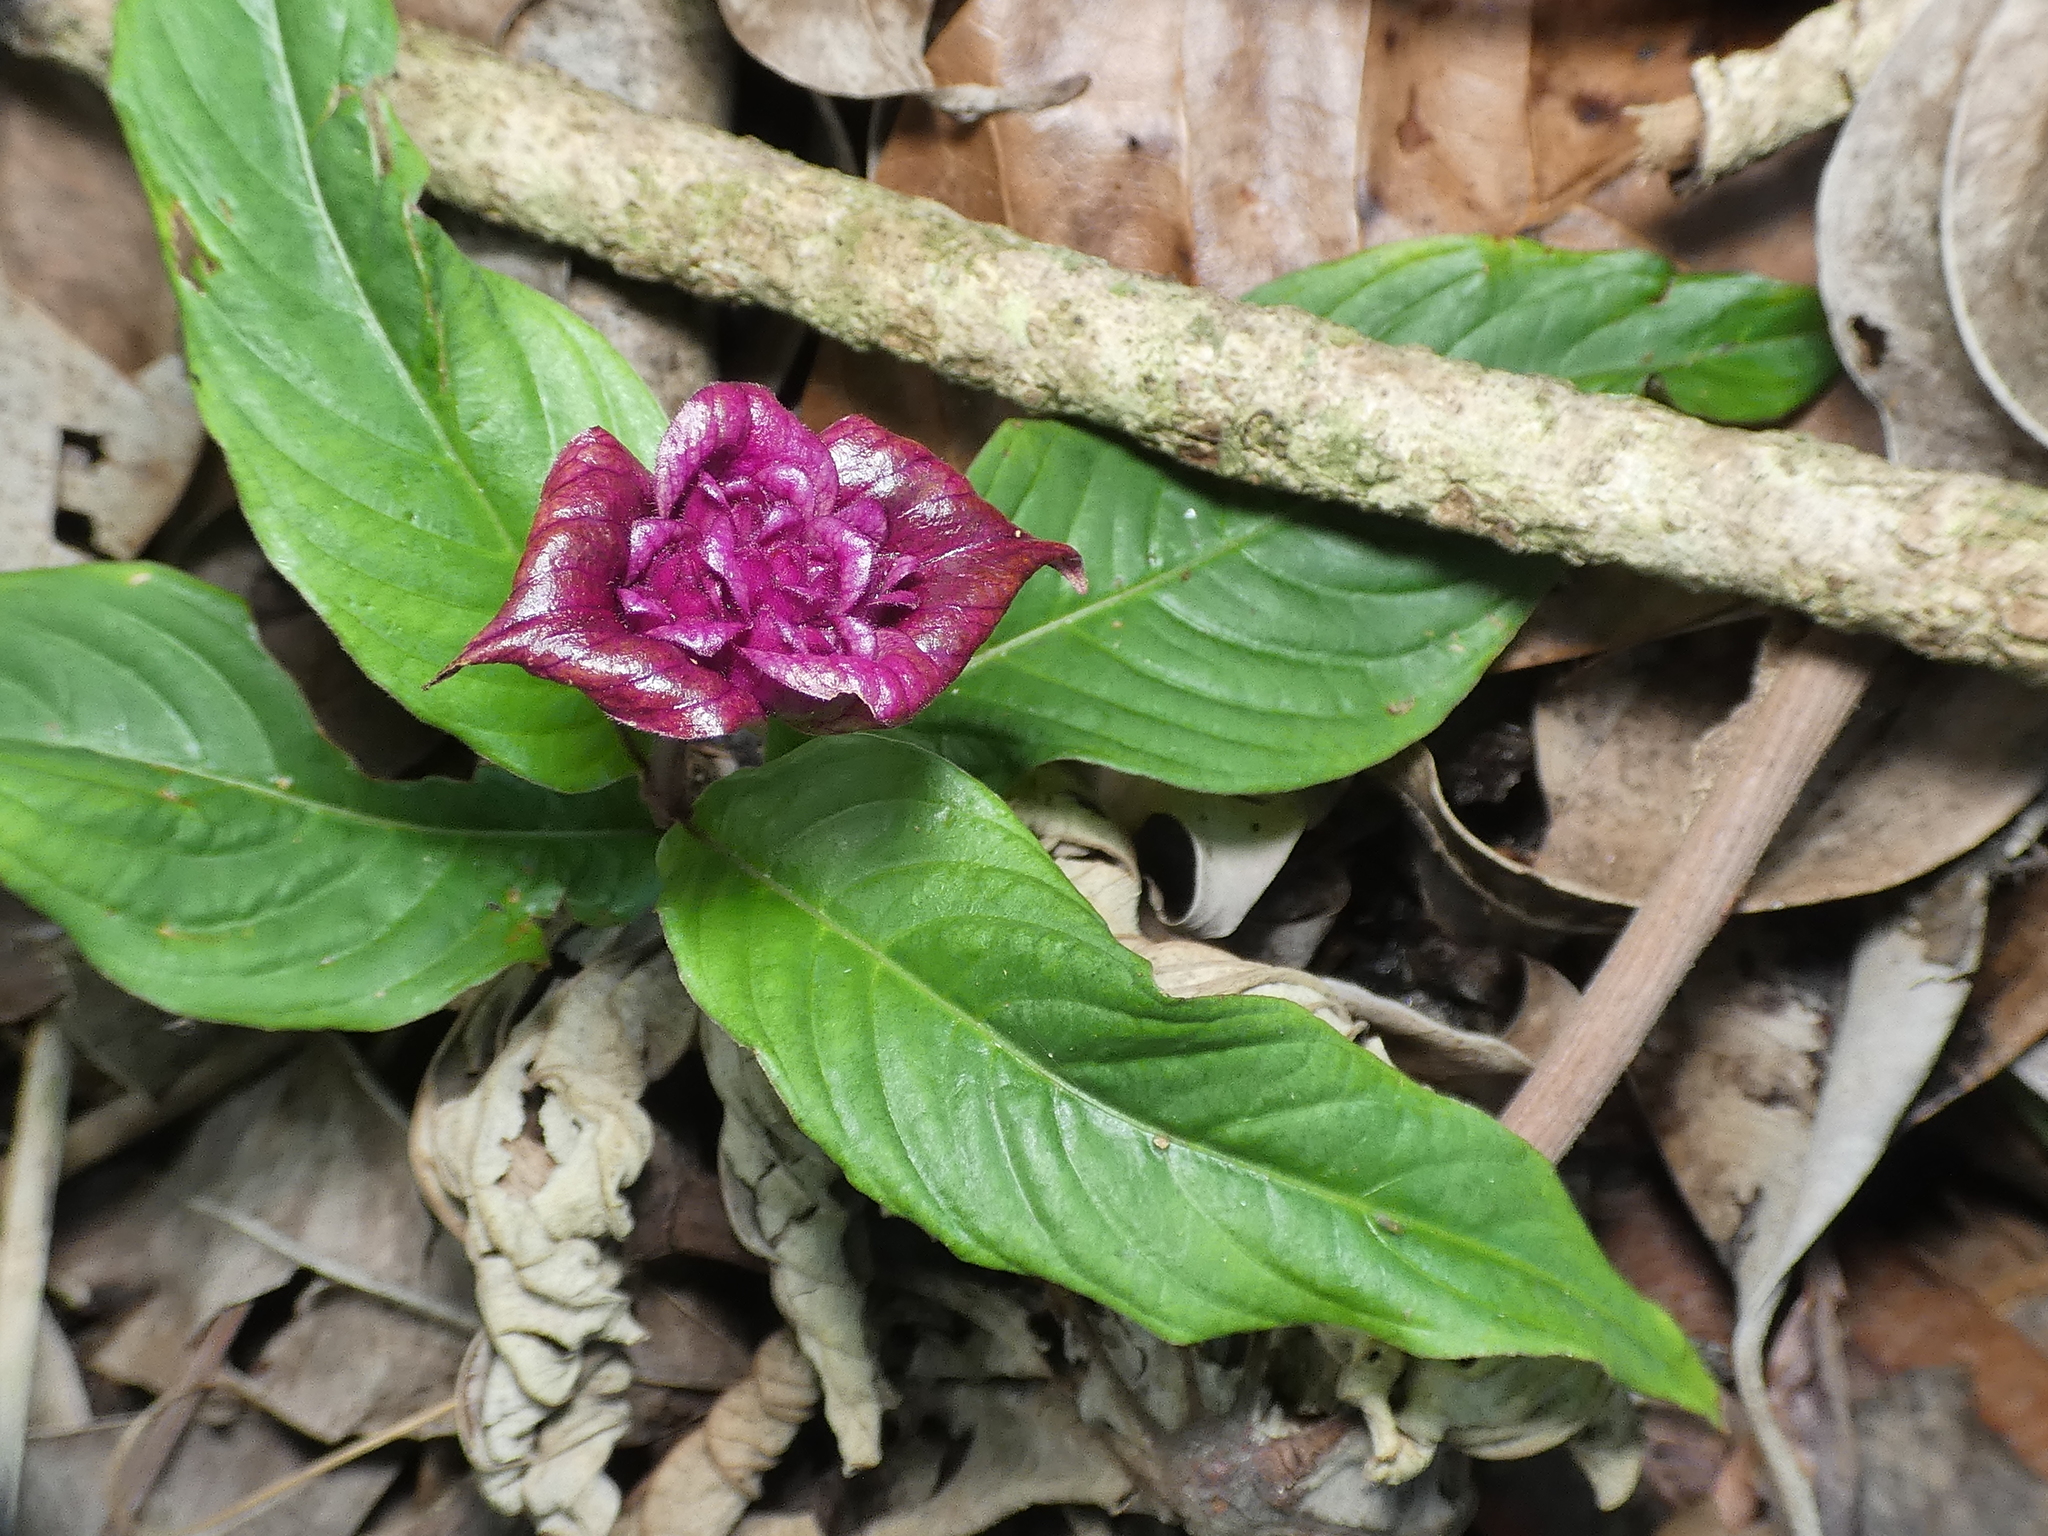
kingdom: Plantae
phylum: Tracheophyta
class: Magnoliopsida
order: Gentianales
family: Rubiaceae
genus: Palicourea
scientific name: Palicourea colorata
